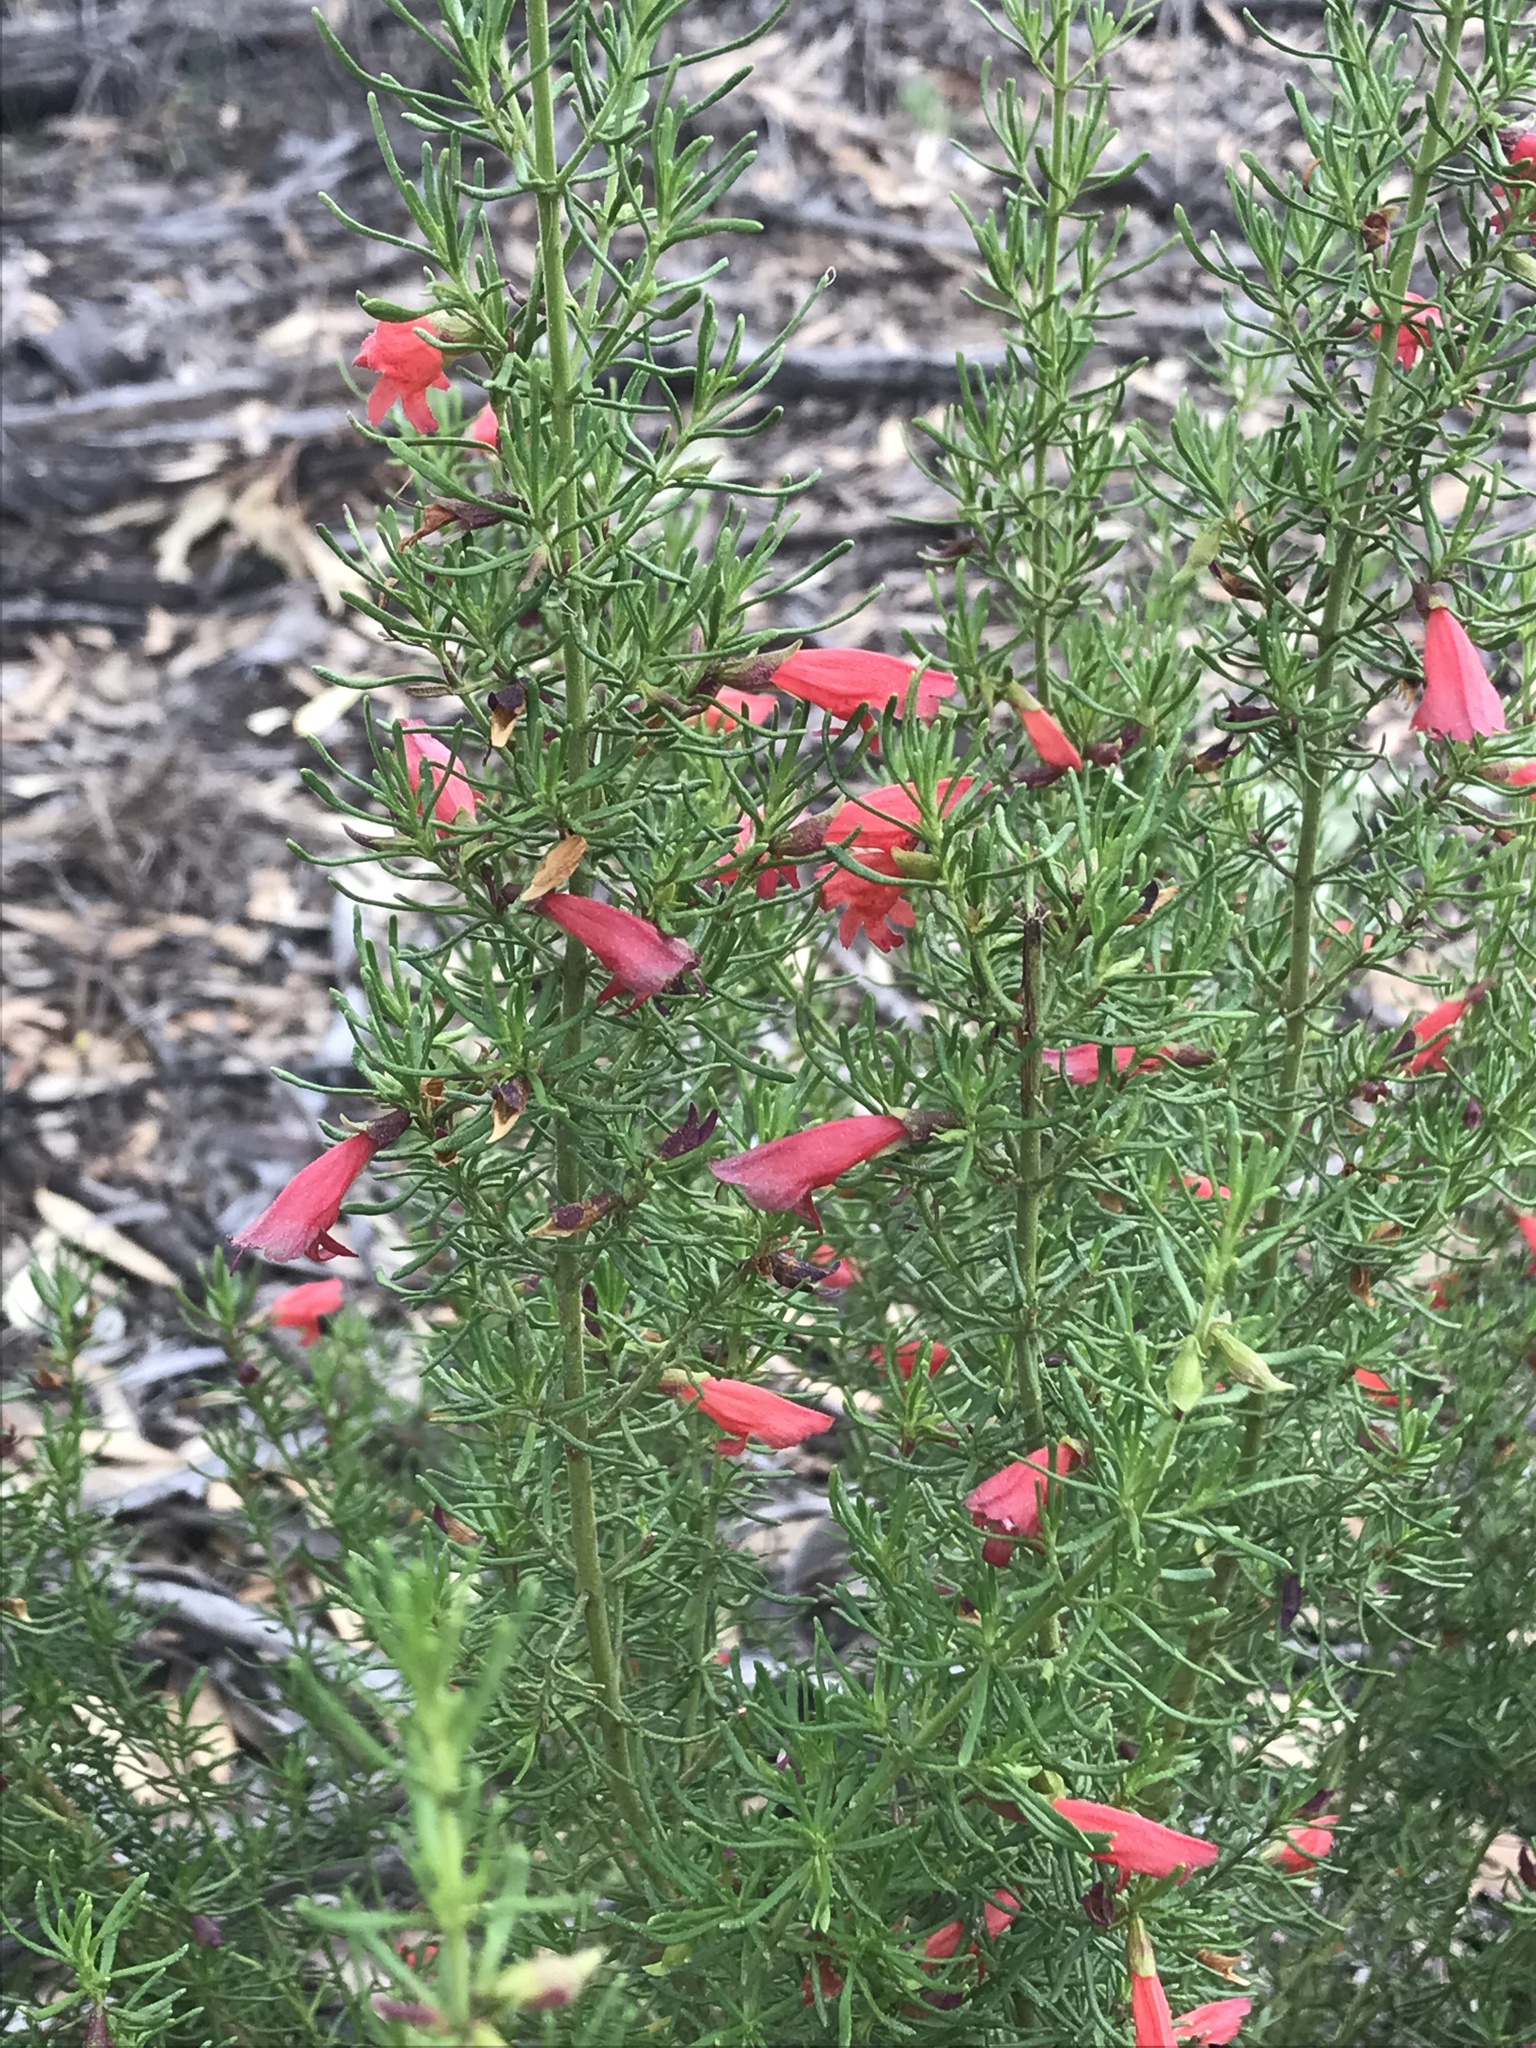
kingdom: Plantae
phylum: Tracheophyta
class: Magnoliopsida
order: Lamiales
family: Lamiaceae
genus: Prostanthera
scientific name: Prostanthera aspalathoides
